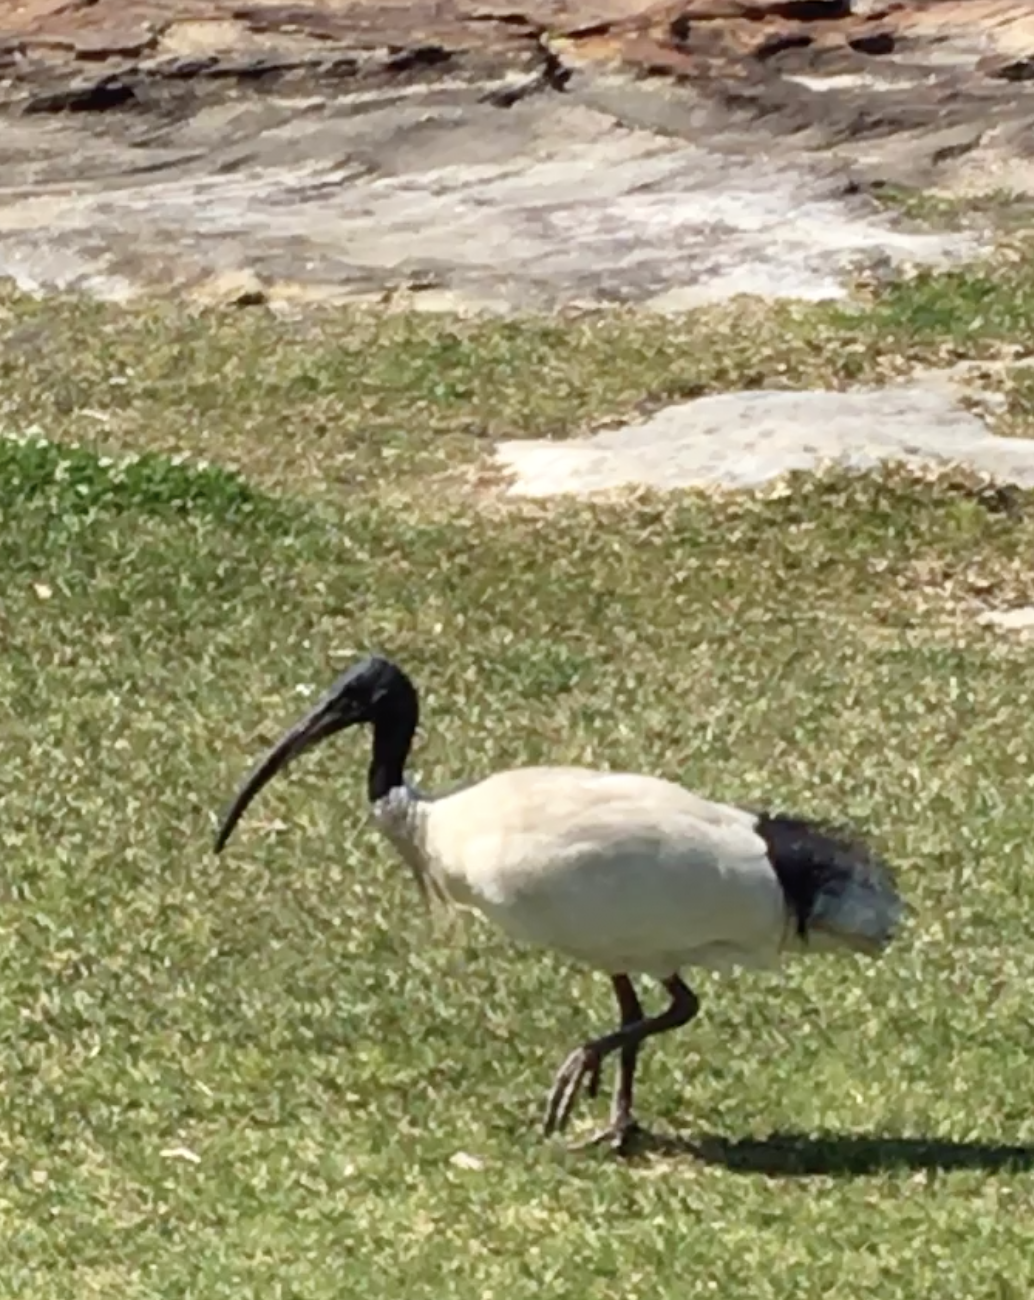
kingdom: Animalia
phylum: Chordata
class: Aves
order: Pelecaniformes
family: Threskiornithidae
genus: Threskiornis
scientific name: Threskiornis molucca
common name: Australian white ibis
